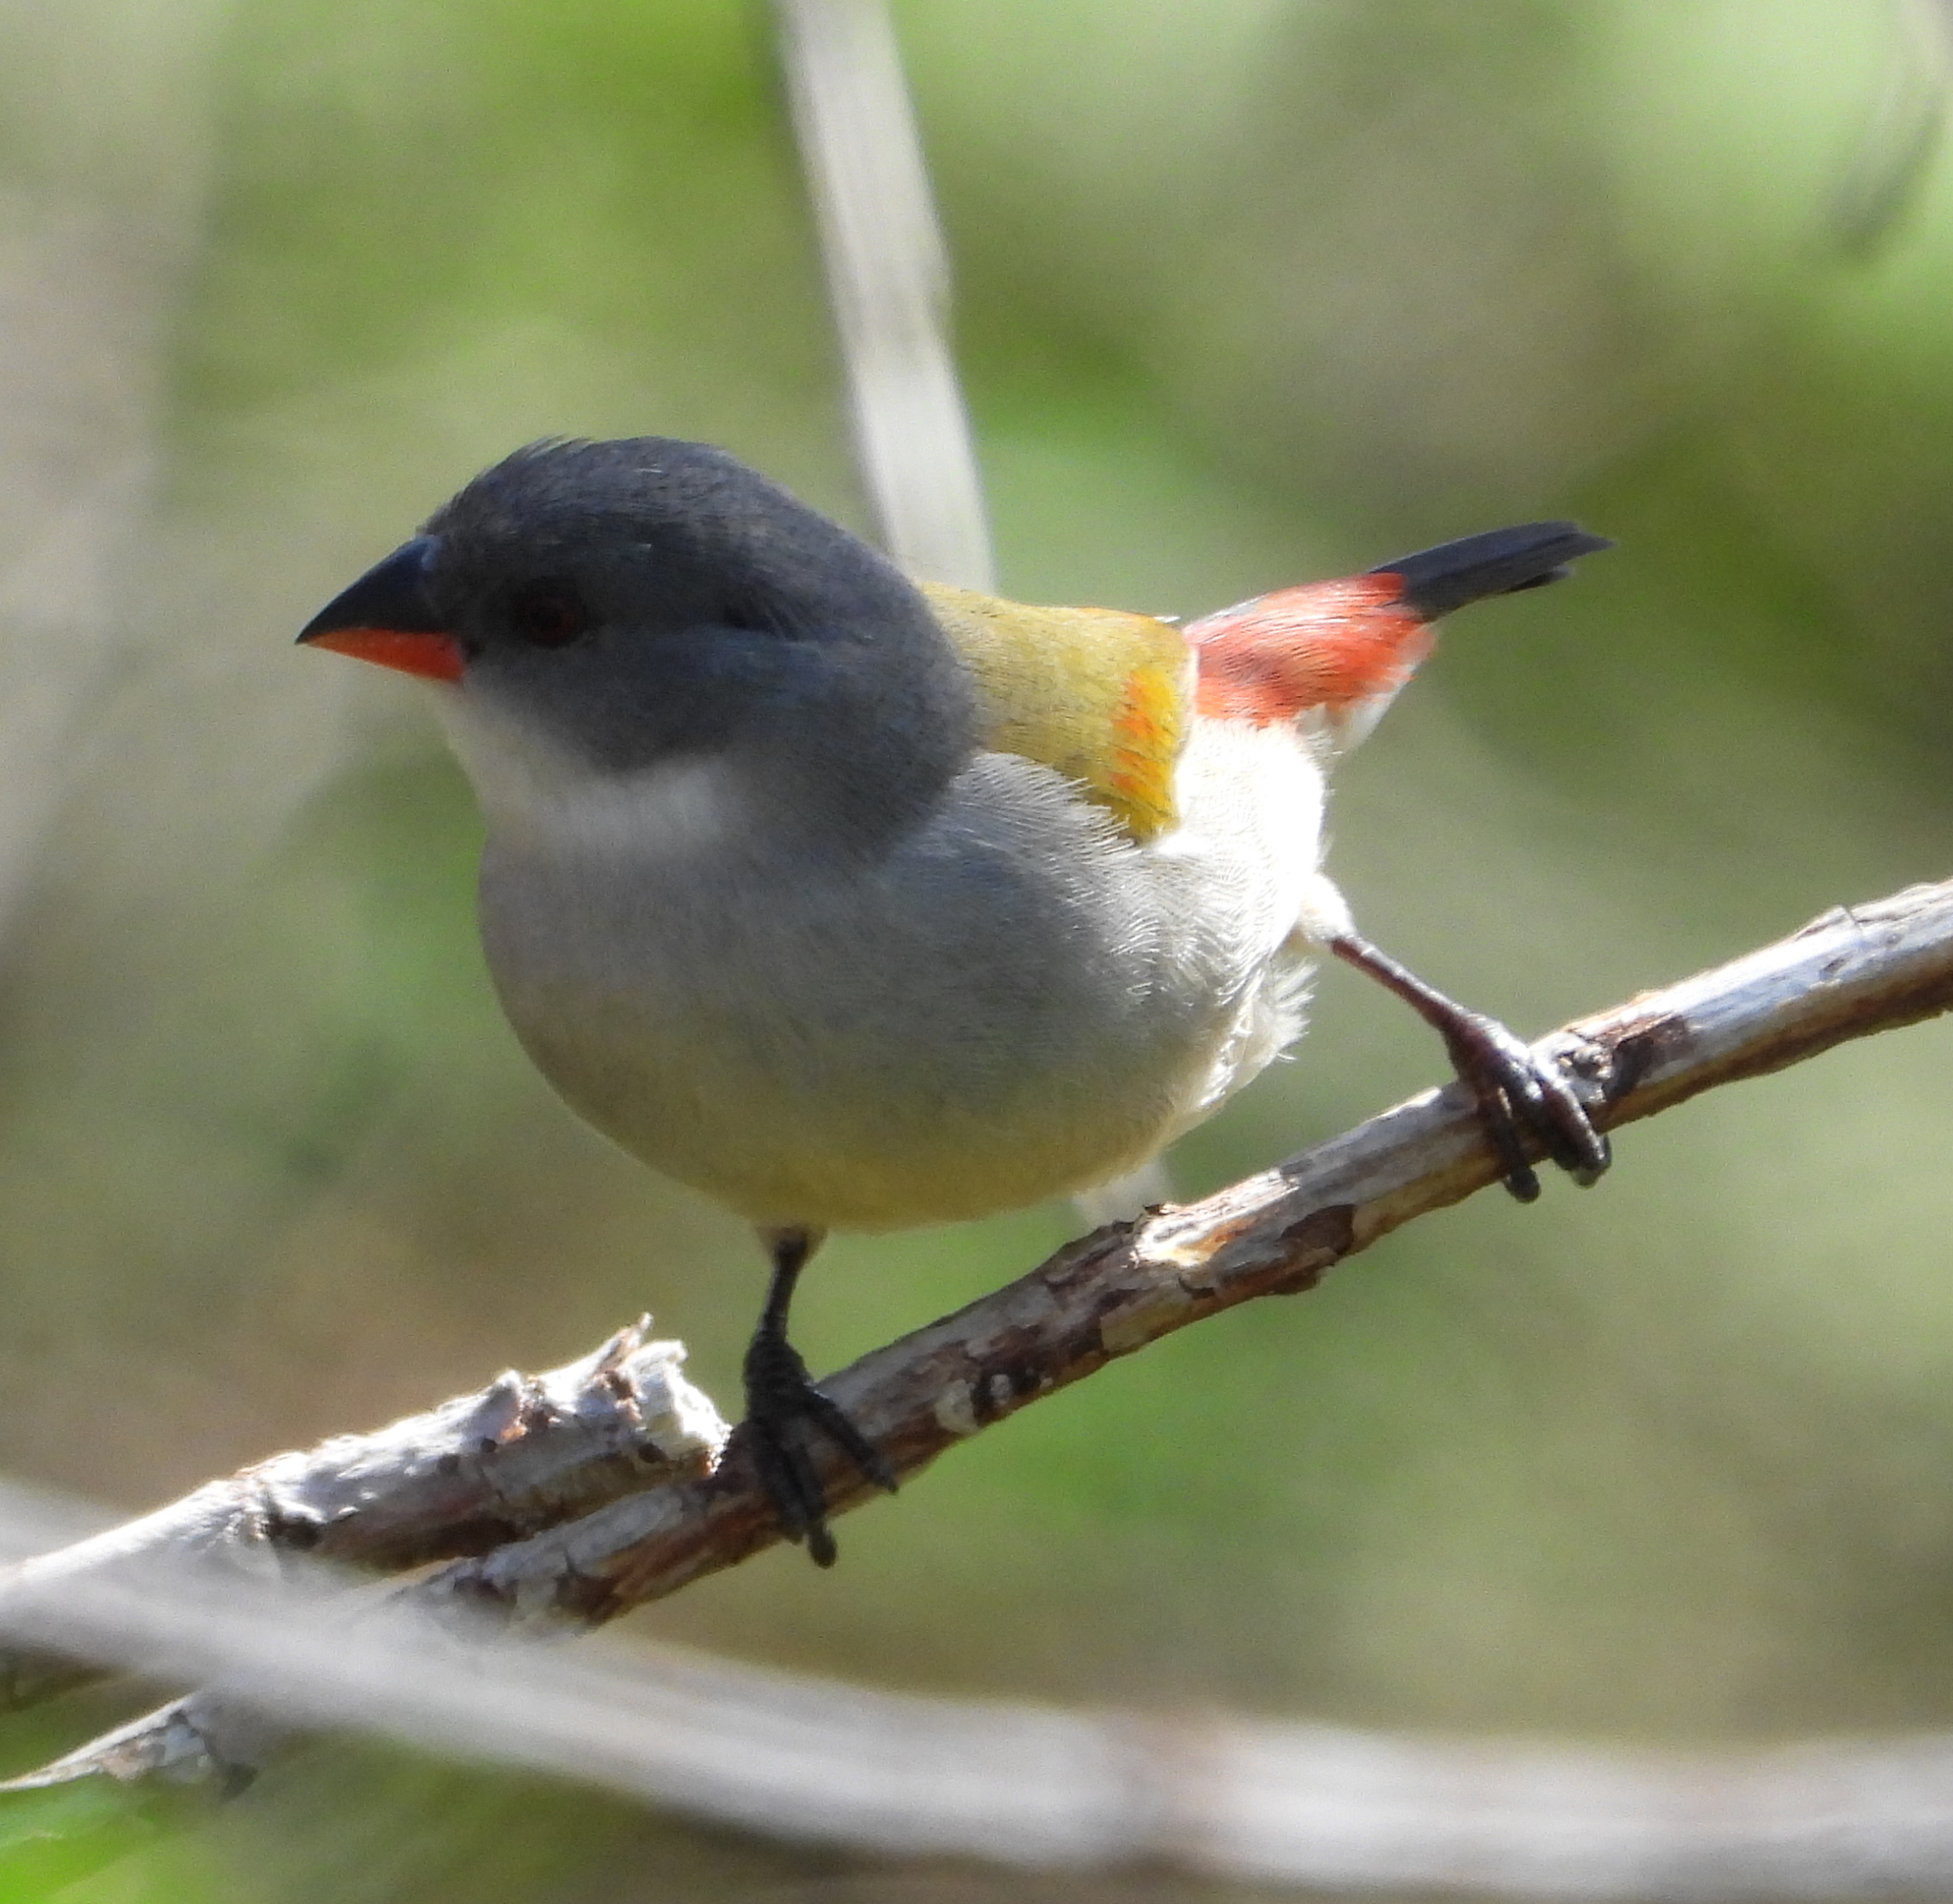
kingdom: Animalia
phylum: Chordata
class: Aves
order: Passeriformes
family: Estrildidae
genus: Coccopygia
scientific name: Coccopygia melanotis
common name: Swee waxbill
